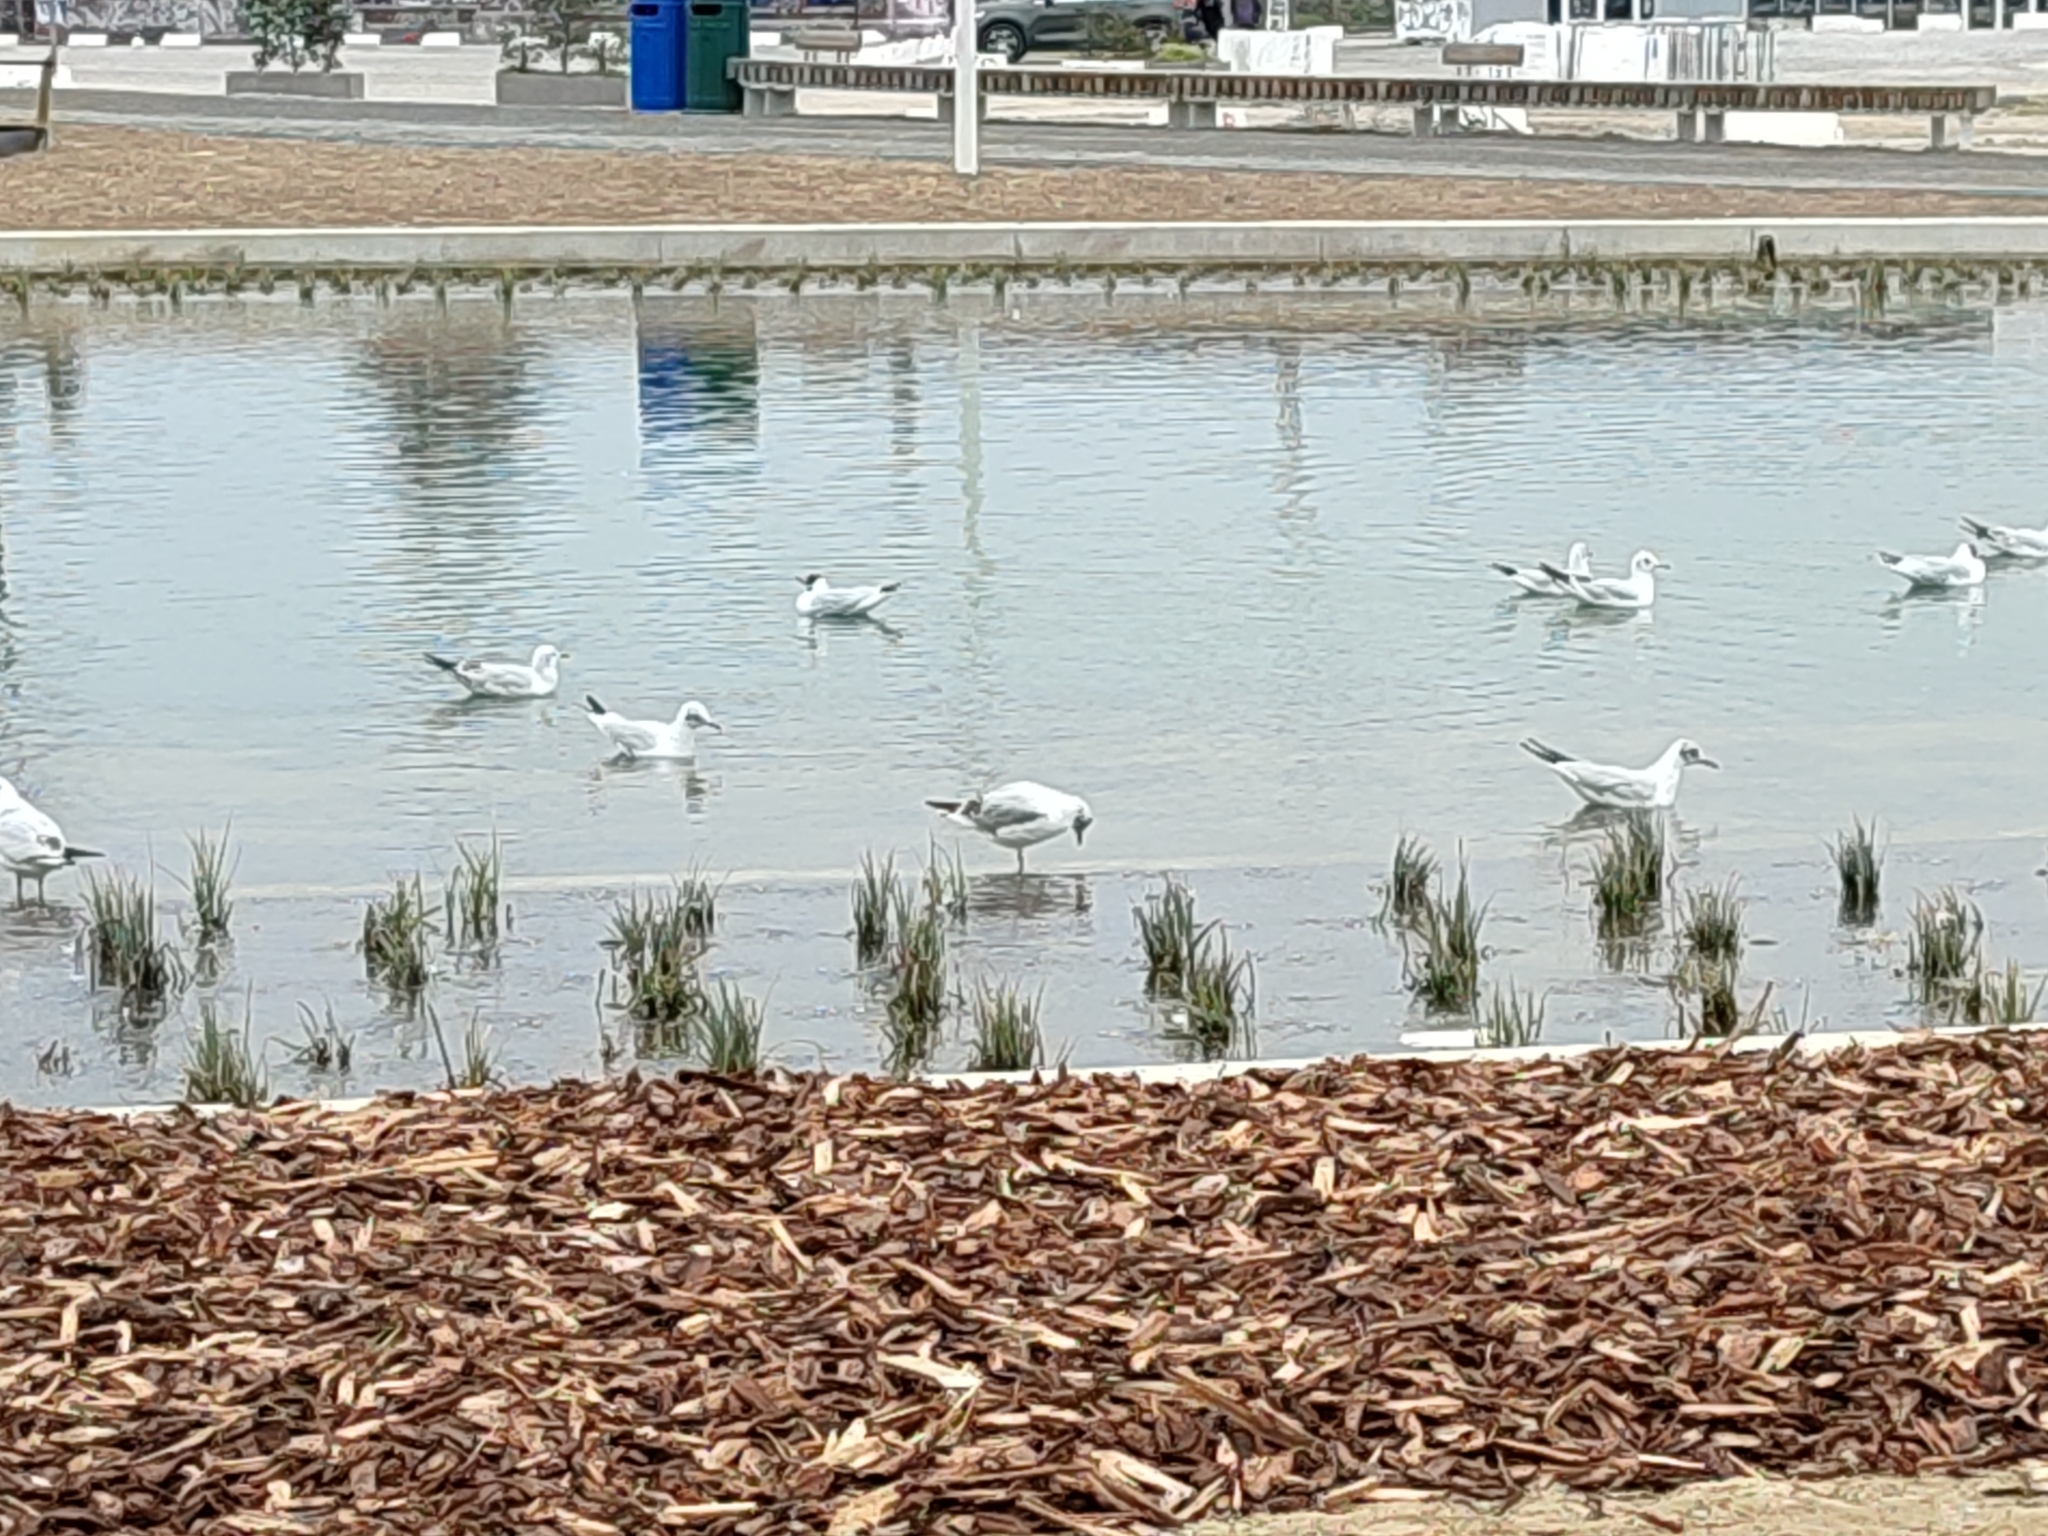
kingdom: Animalia
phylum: Chordata
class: Aves
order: Charadriiformes
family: Laridae
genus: Chroicocephalus
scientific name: Chroicocephalus ridibundus
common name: Black-headed gull
